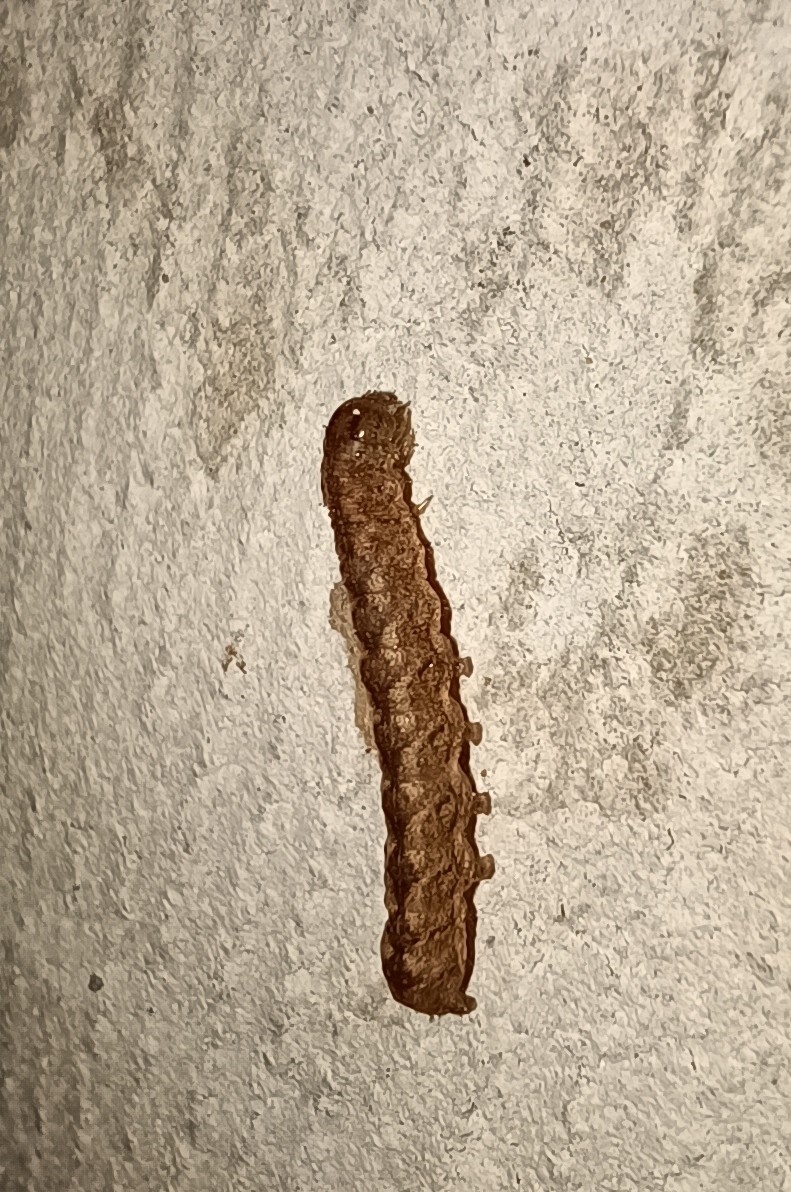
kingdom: Animalia
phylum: Arthropoda
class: Insecta
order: Lepidoptera
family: Noctuidae
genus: Polia
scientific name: Polia nebulosa
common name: Grey arches
